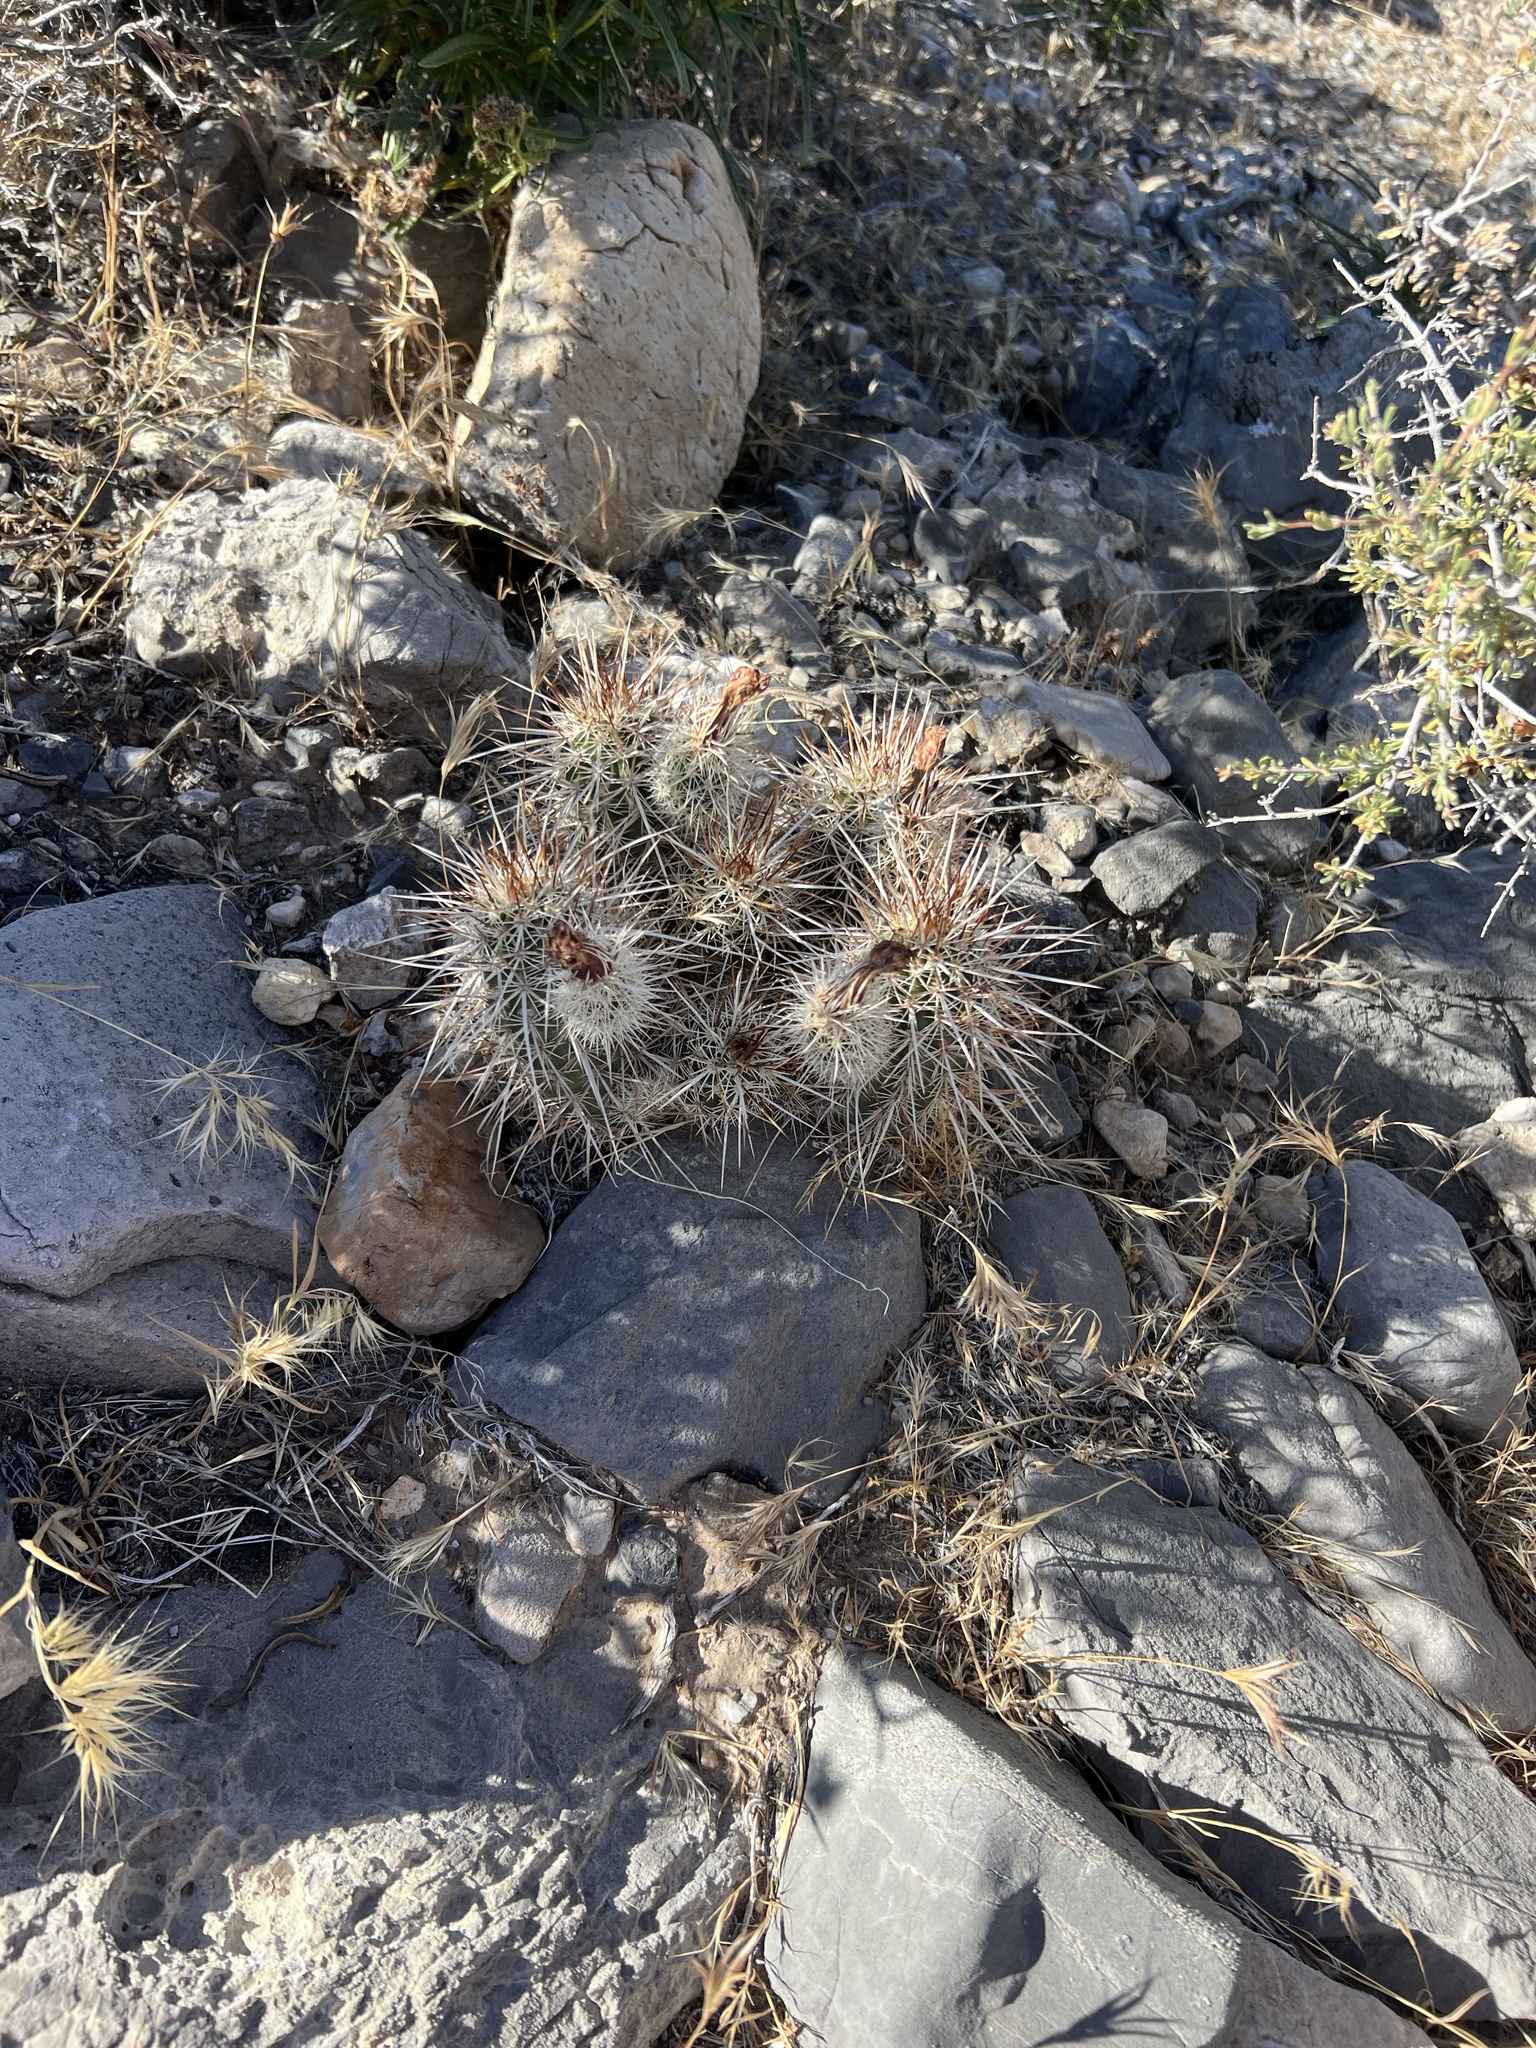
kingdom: Plantae
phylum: Tracheophyta
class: Magnoliopsida
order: Caryophyllales
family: Cactaceae
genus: Echinocereus
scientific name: Echinocereus engelmannii
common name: Engelmann's hedgehog cactus
